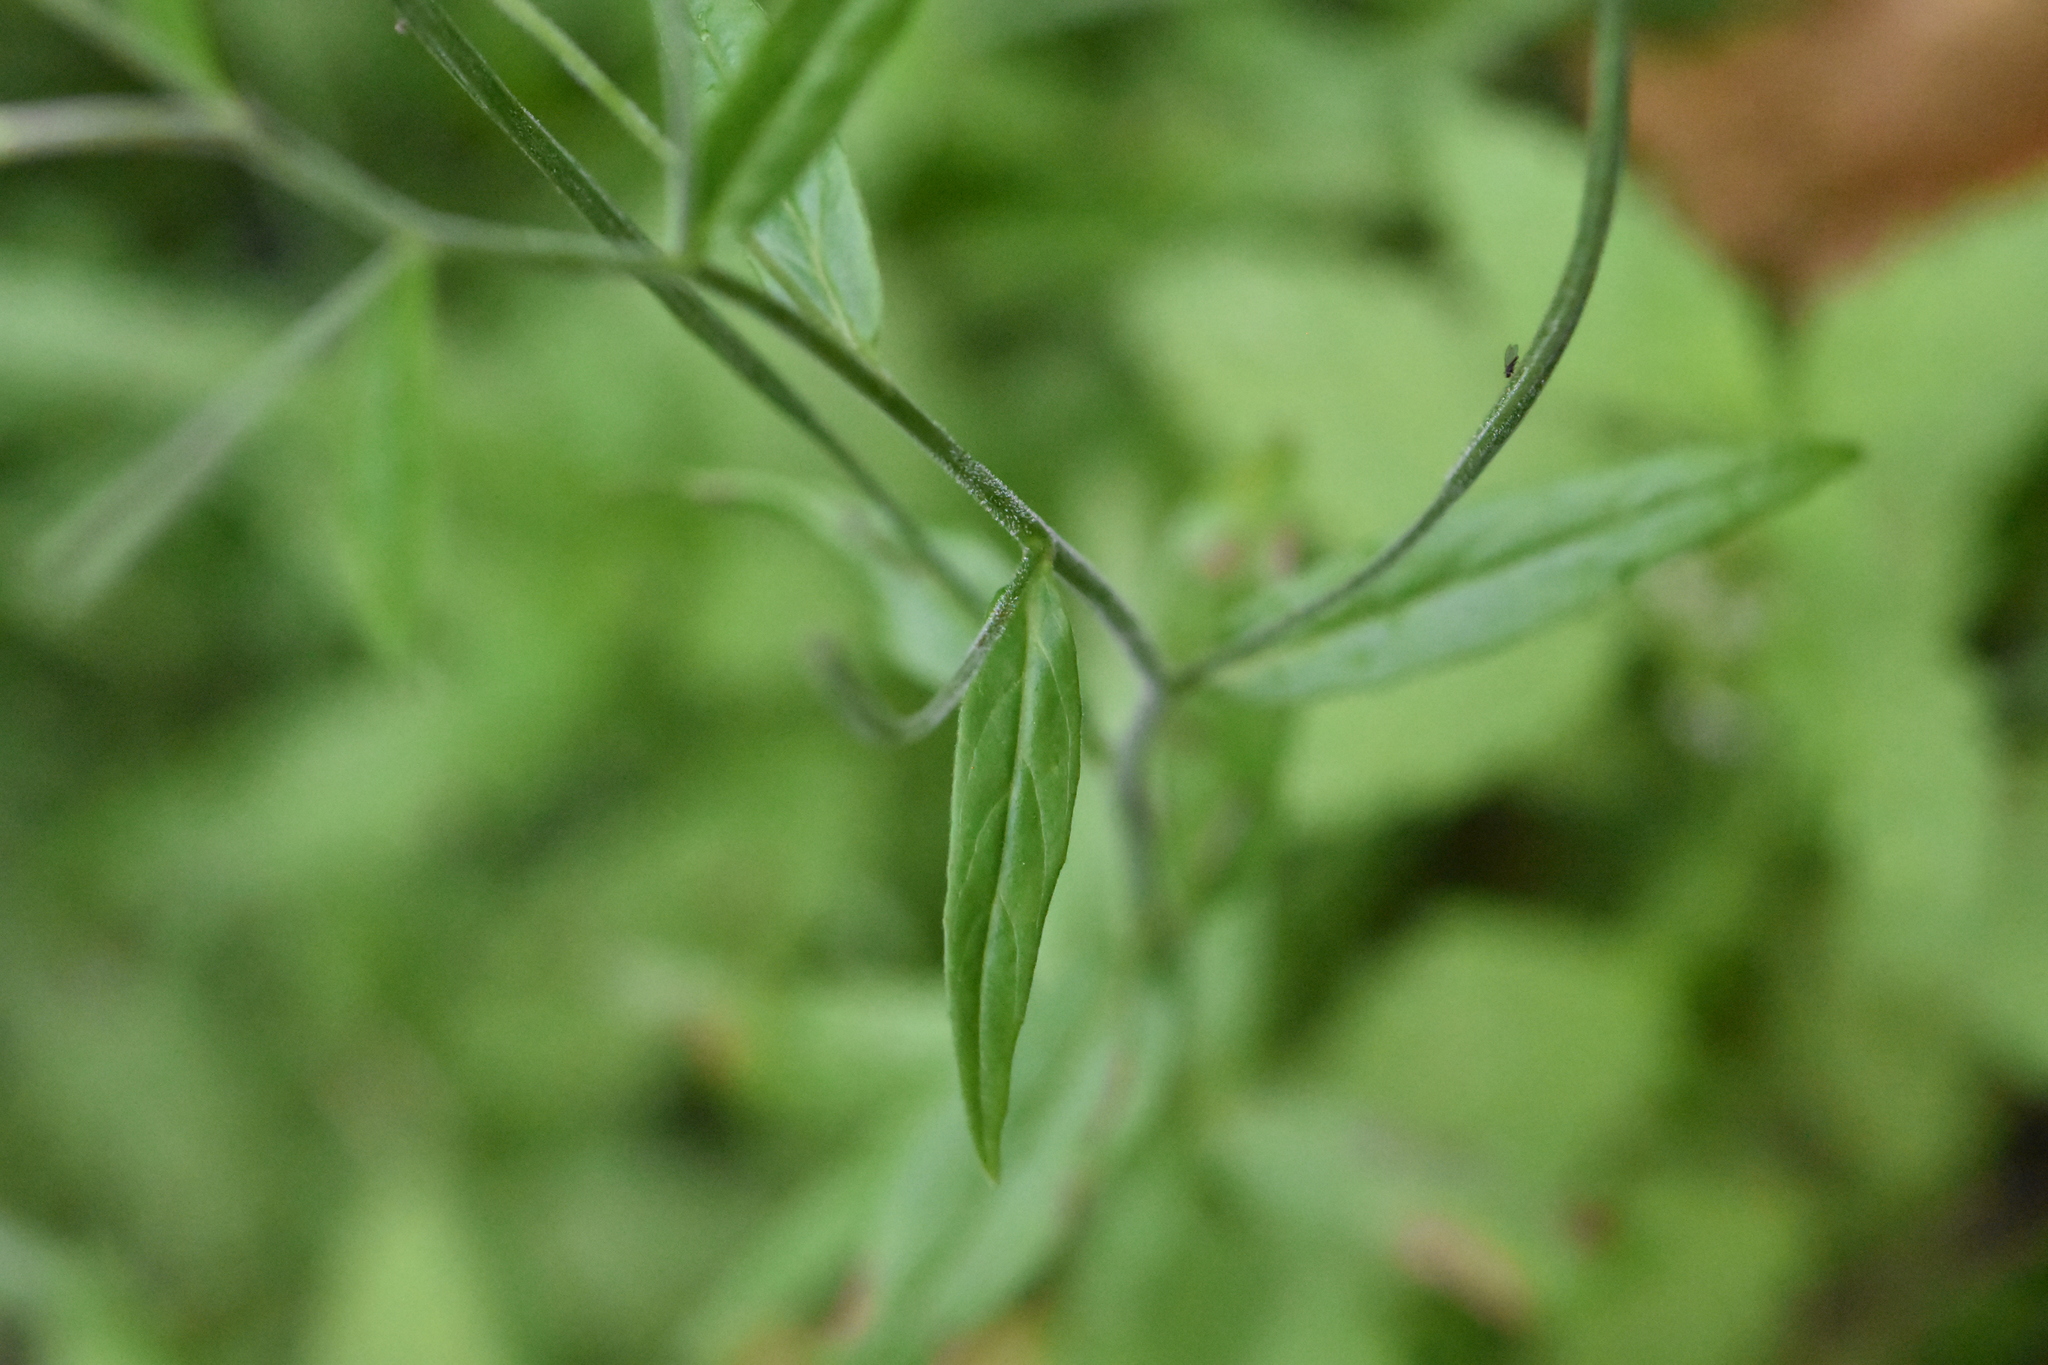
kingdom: Plantae
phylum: Tracheophyta
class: Magnoliopsida
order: Myrtales
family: Onagraceae
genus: Epilobium
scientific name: Epilobium palustre
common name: Marsh willowherb
